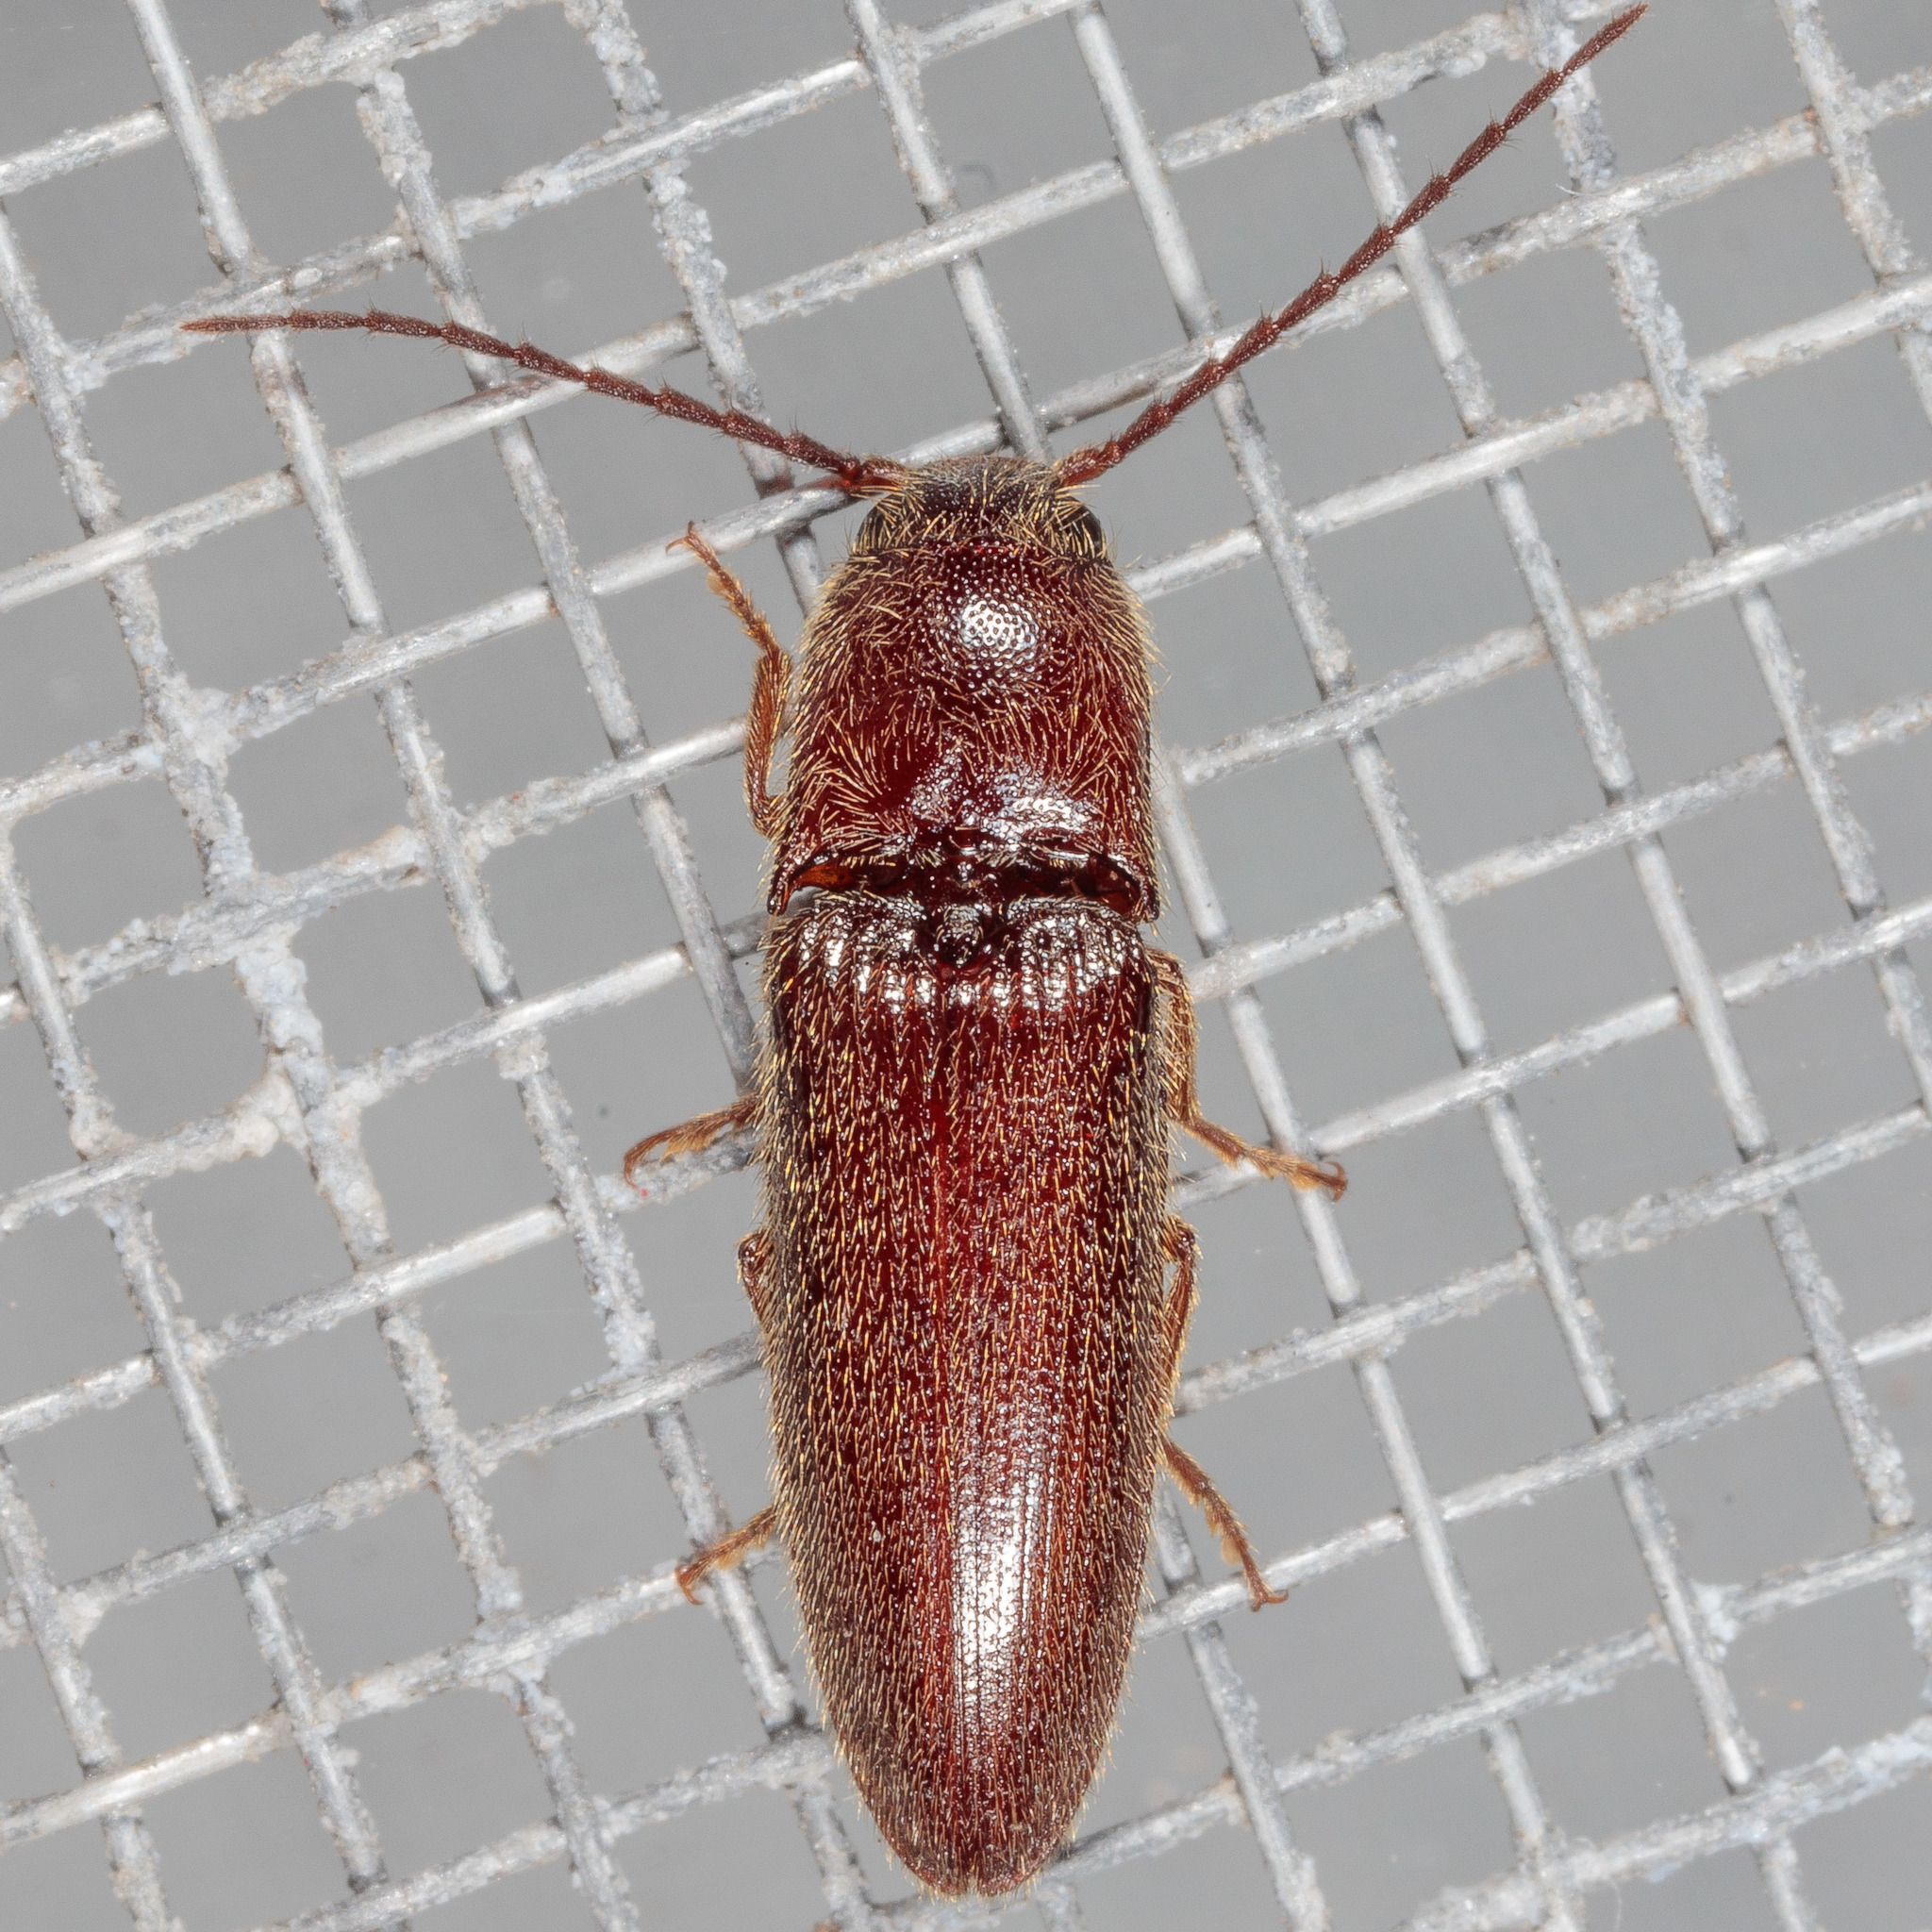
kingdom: Animalia
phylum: Arthropoda
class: Insecta
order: Coleoptera
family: Elateridae
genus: Dipropus
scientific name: Dipropus
